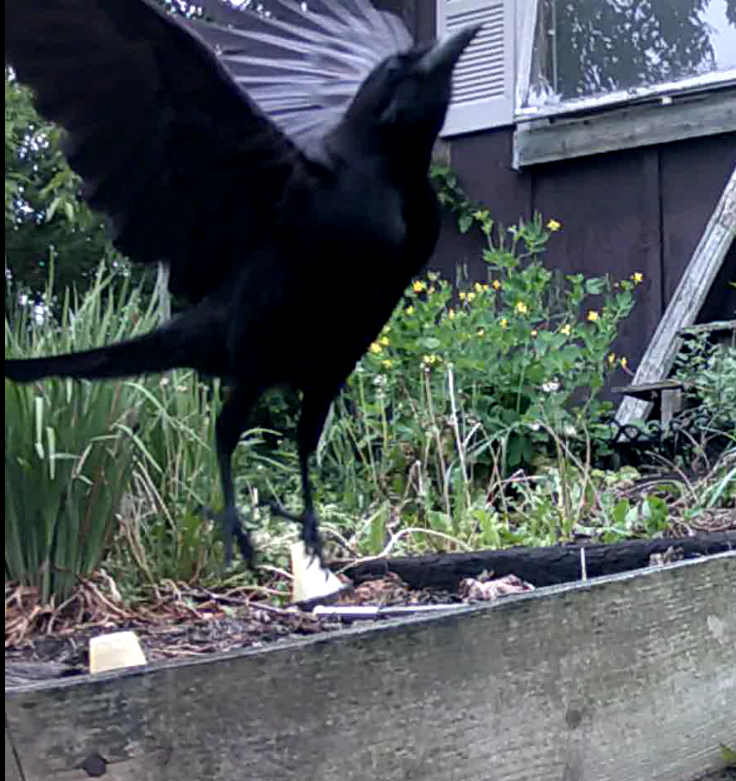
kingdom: Animalia
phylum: Chordata
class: Aves
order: Passeriformes
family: Corvidae
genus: Corvus
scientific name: Corvus brachyrhynchos
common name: American crow
